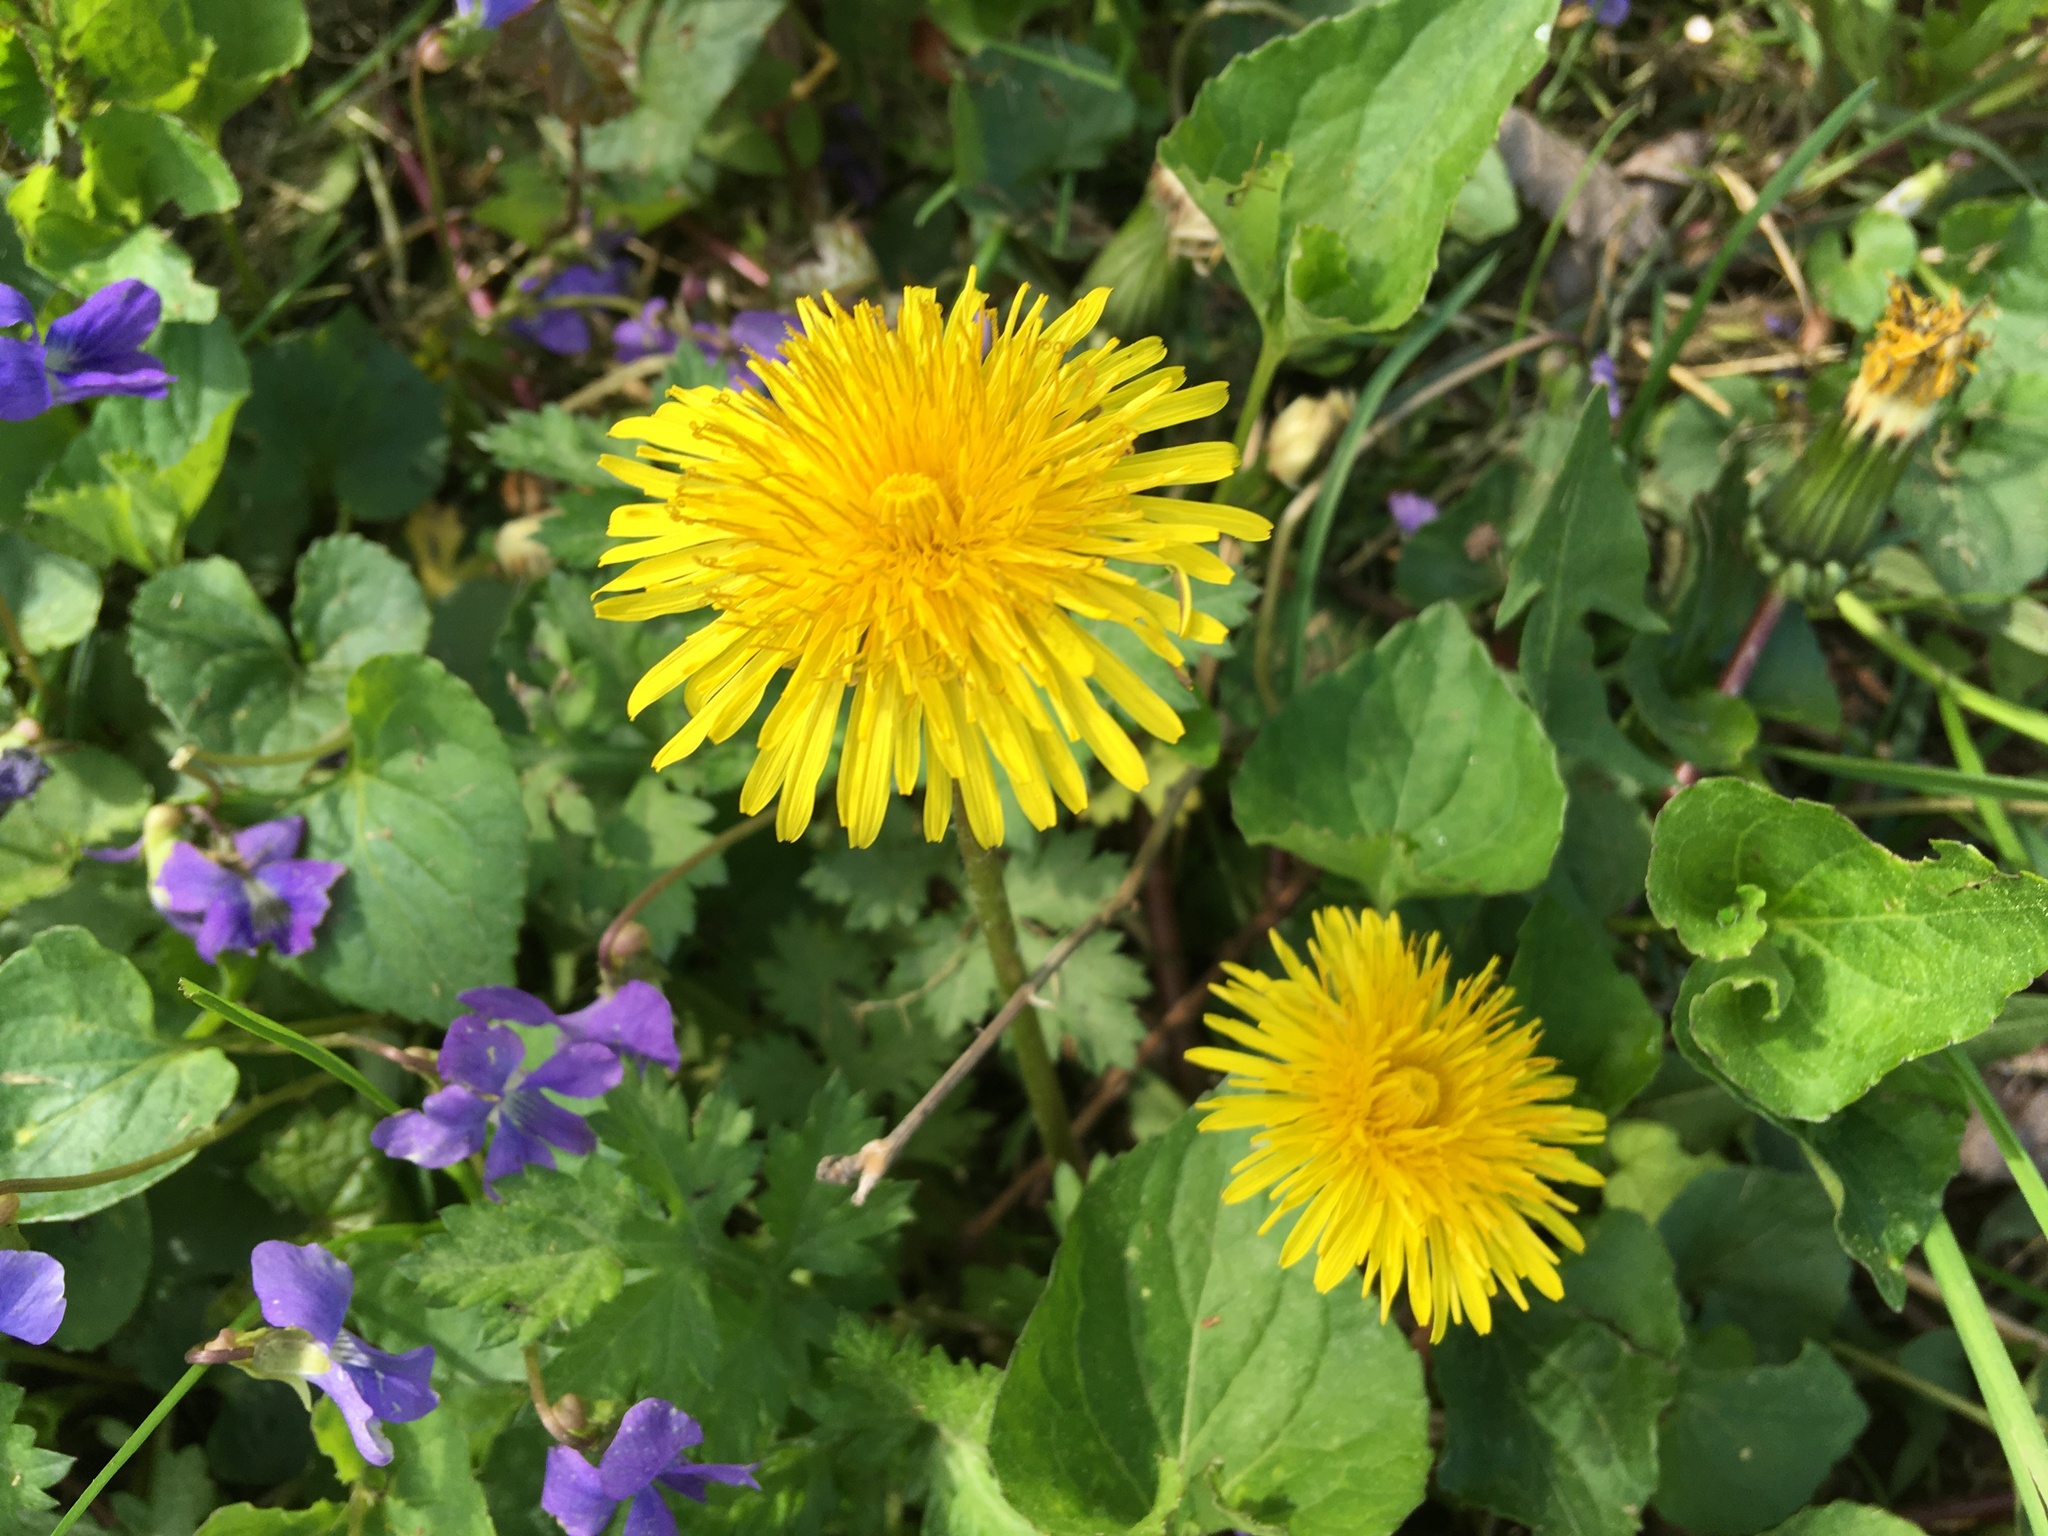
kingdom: Plantae
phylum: Tracheophyta
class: Magnoliopsida
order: Asterales
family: Asteraceae
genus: Taraxacum
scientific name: Taraxacum officinale
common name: Common dandelion
